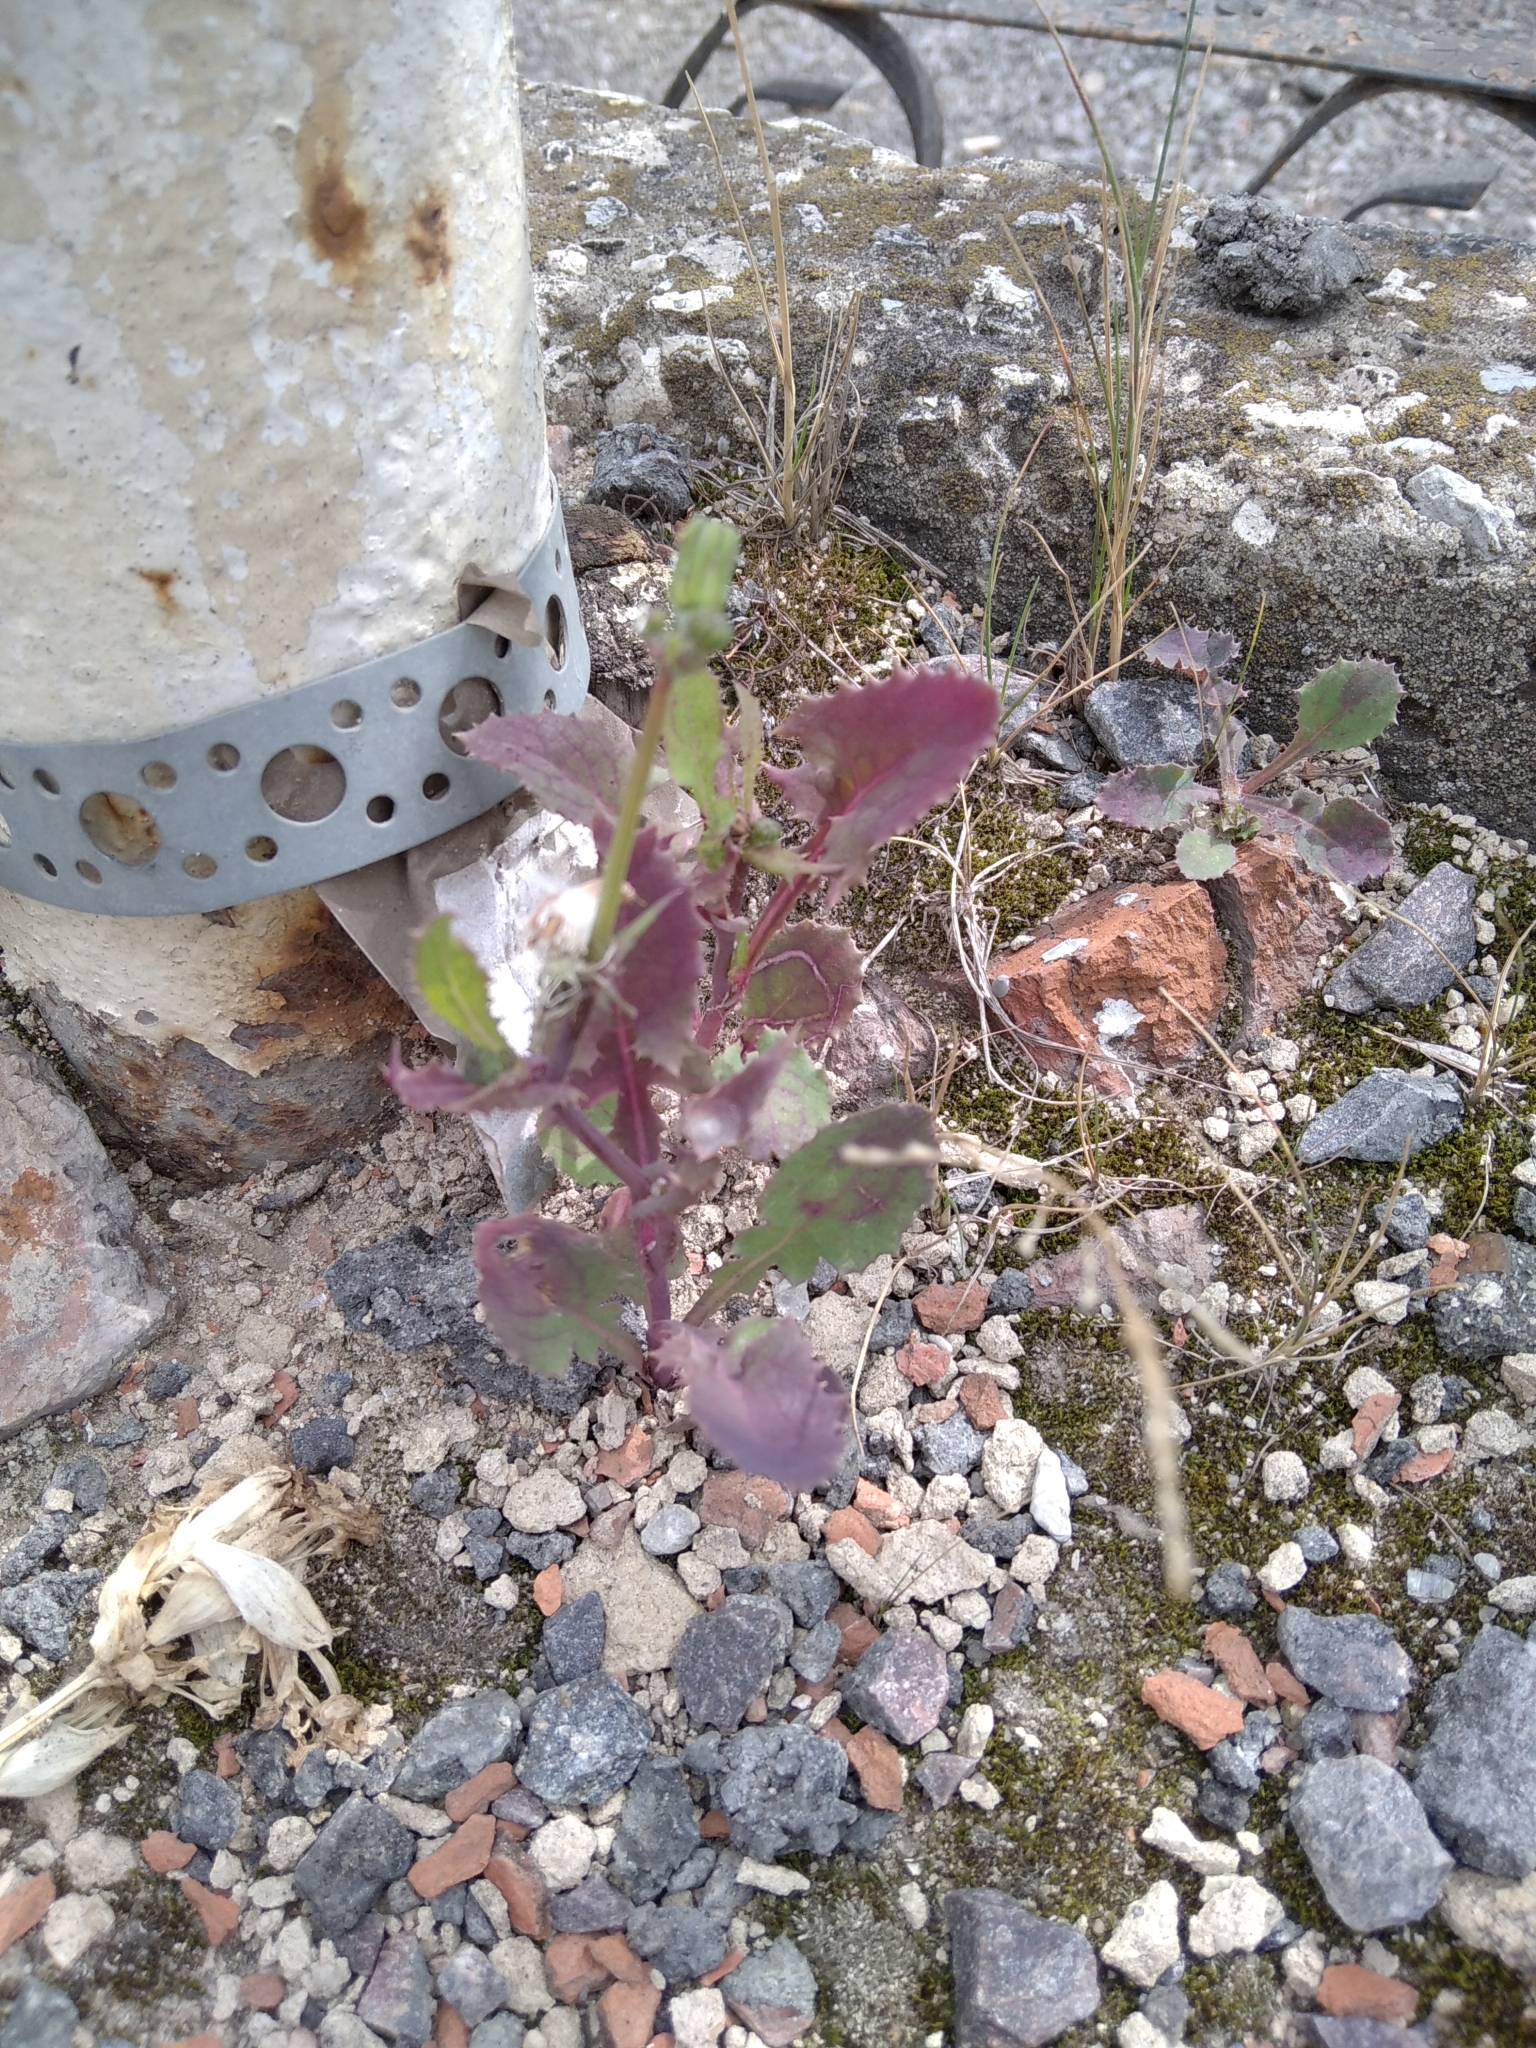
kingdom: Plantae
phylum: Tracheophyta
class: Magnoliopsida
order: Asterales
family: Asteraceae
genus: Sonchus
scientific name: Sonchus oleraceus
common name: Common sowthistle
